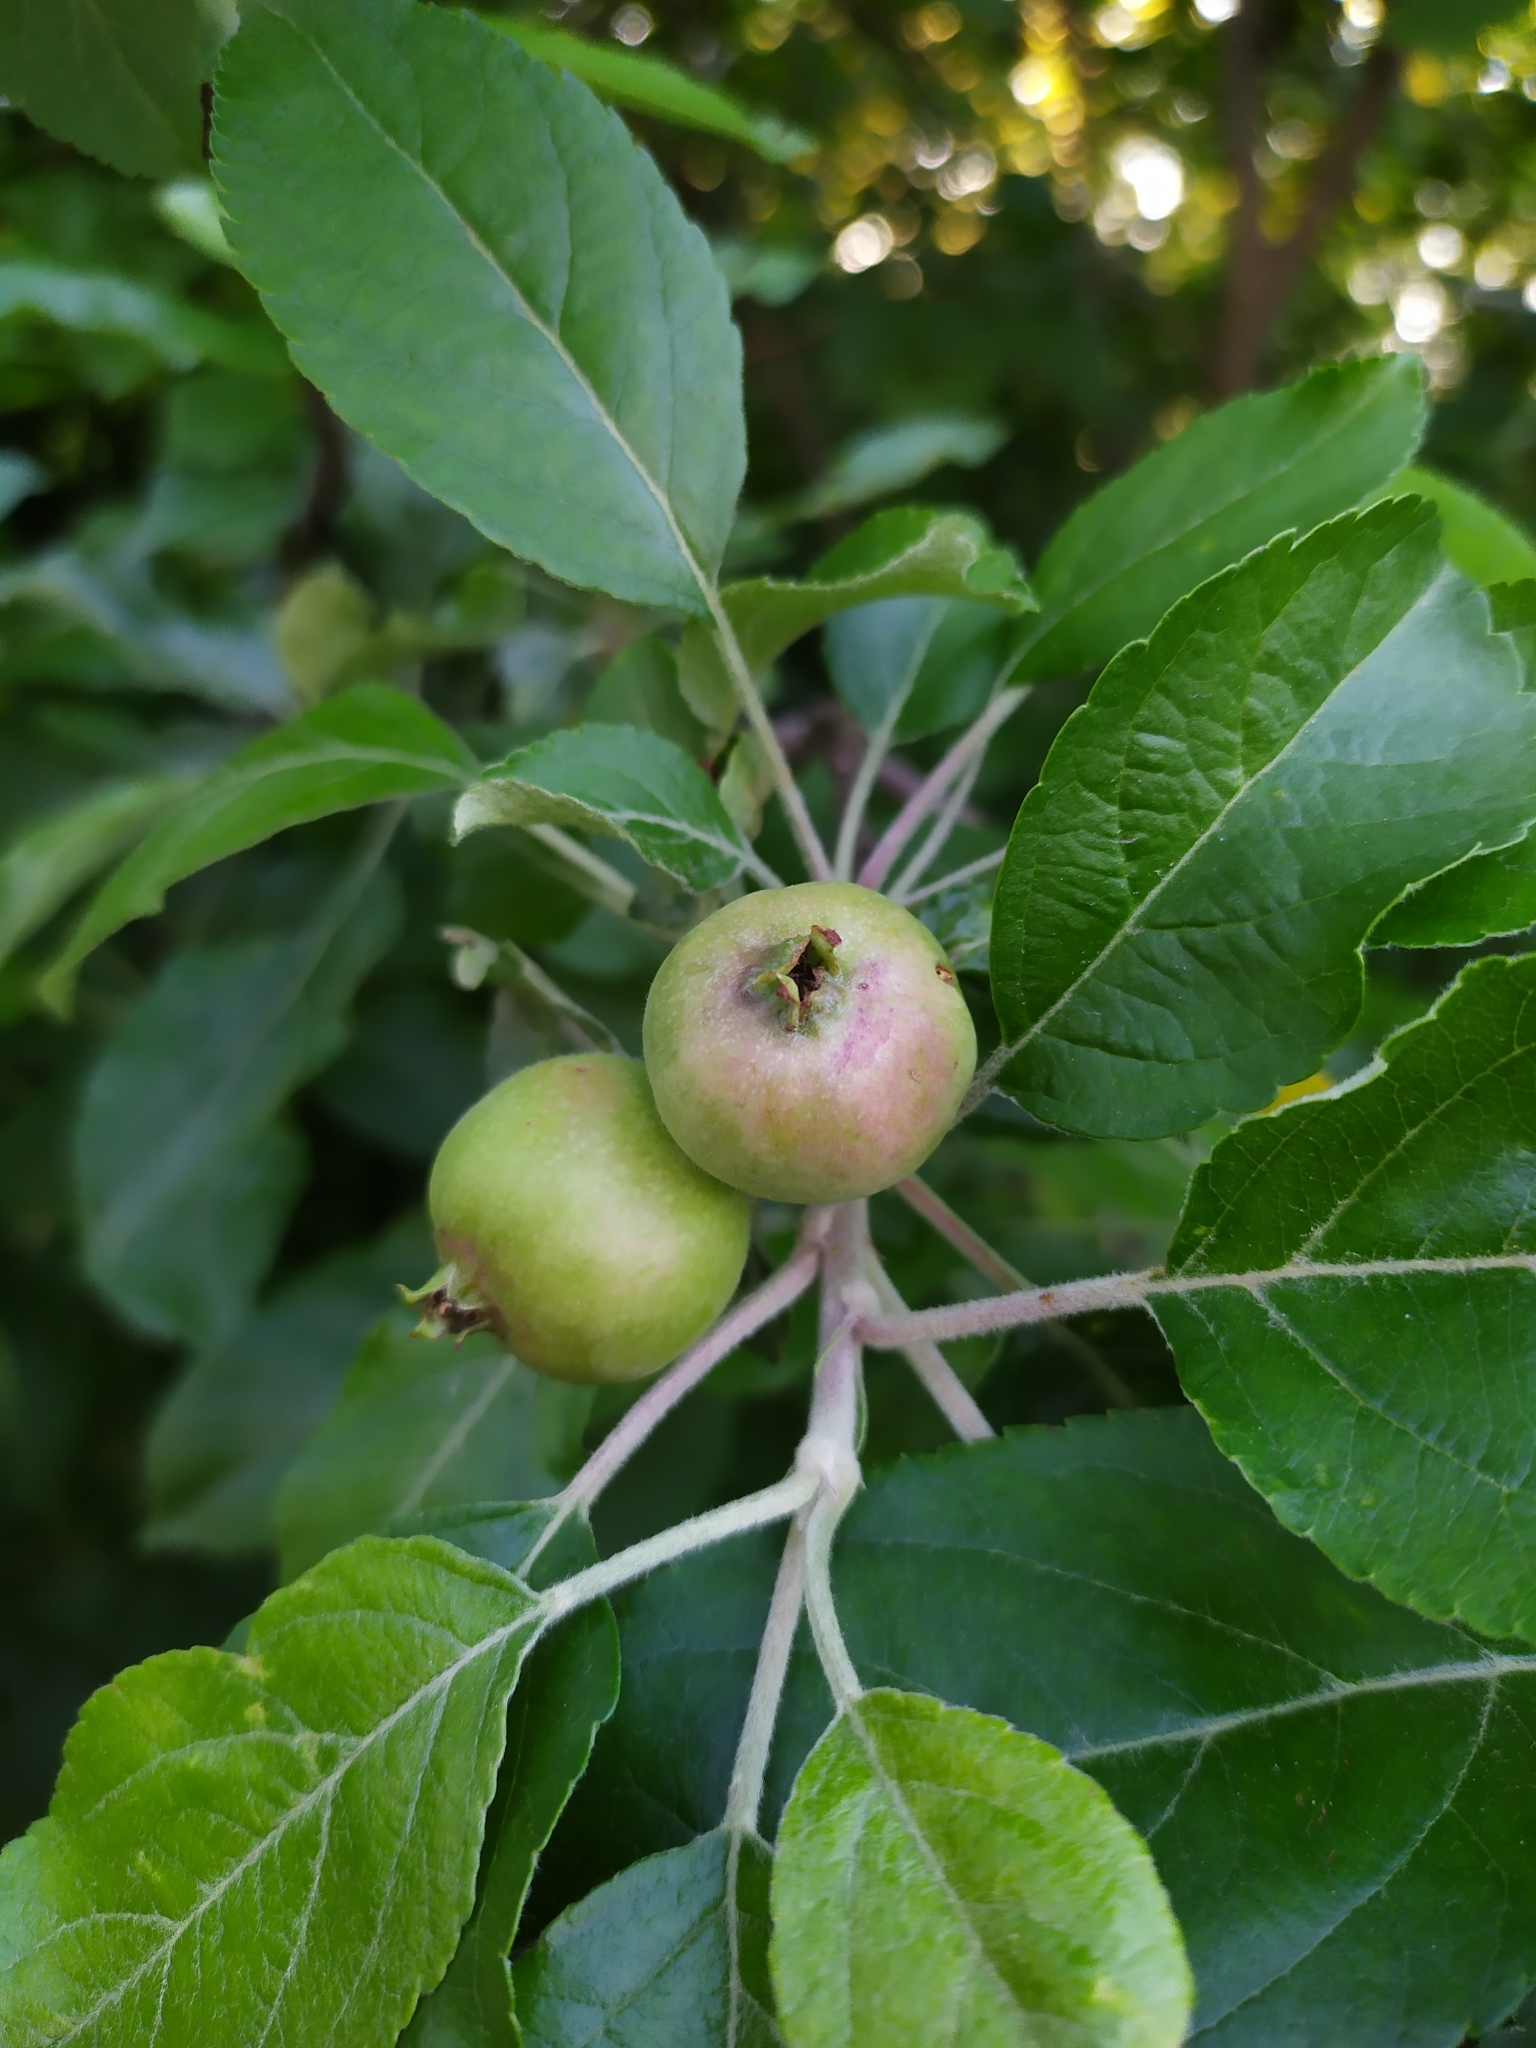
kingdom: Plantae
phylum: Tracheophyta
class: Magnoliopsida
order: Rosales
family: Rosaceae
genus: Malus
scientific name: Malus domestica
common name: Apple
